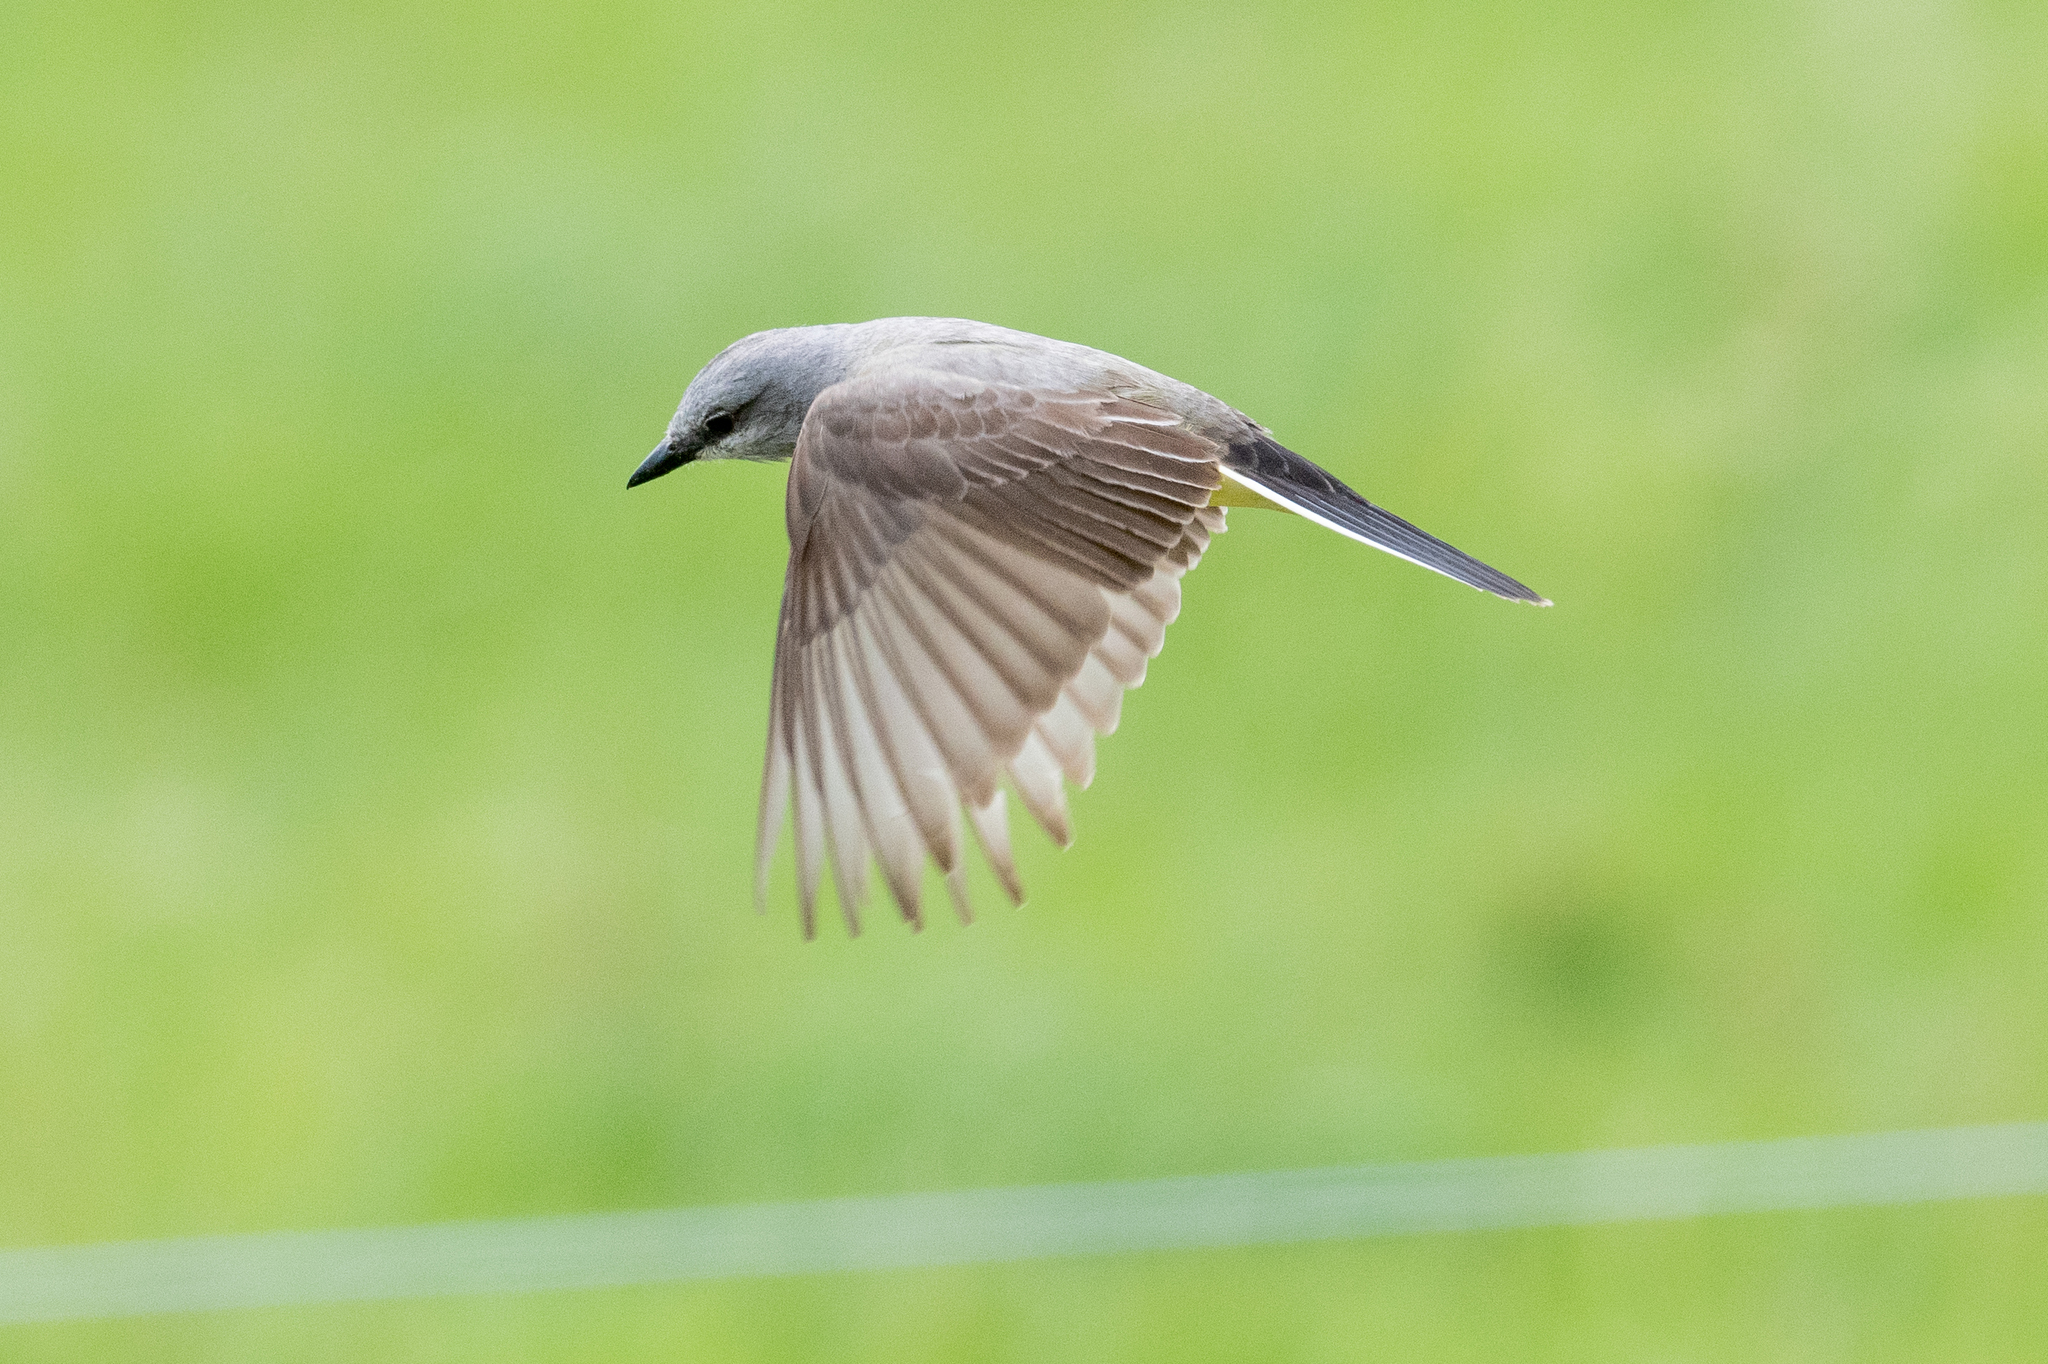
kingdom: Animalia
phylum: Chordata
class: Aves
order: Passeriformes
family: Tyrannidae
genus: Tyrannus
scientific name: Tyrannus verticalis
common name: Western kingbird
